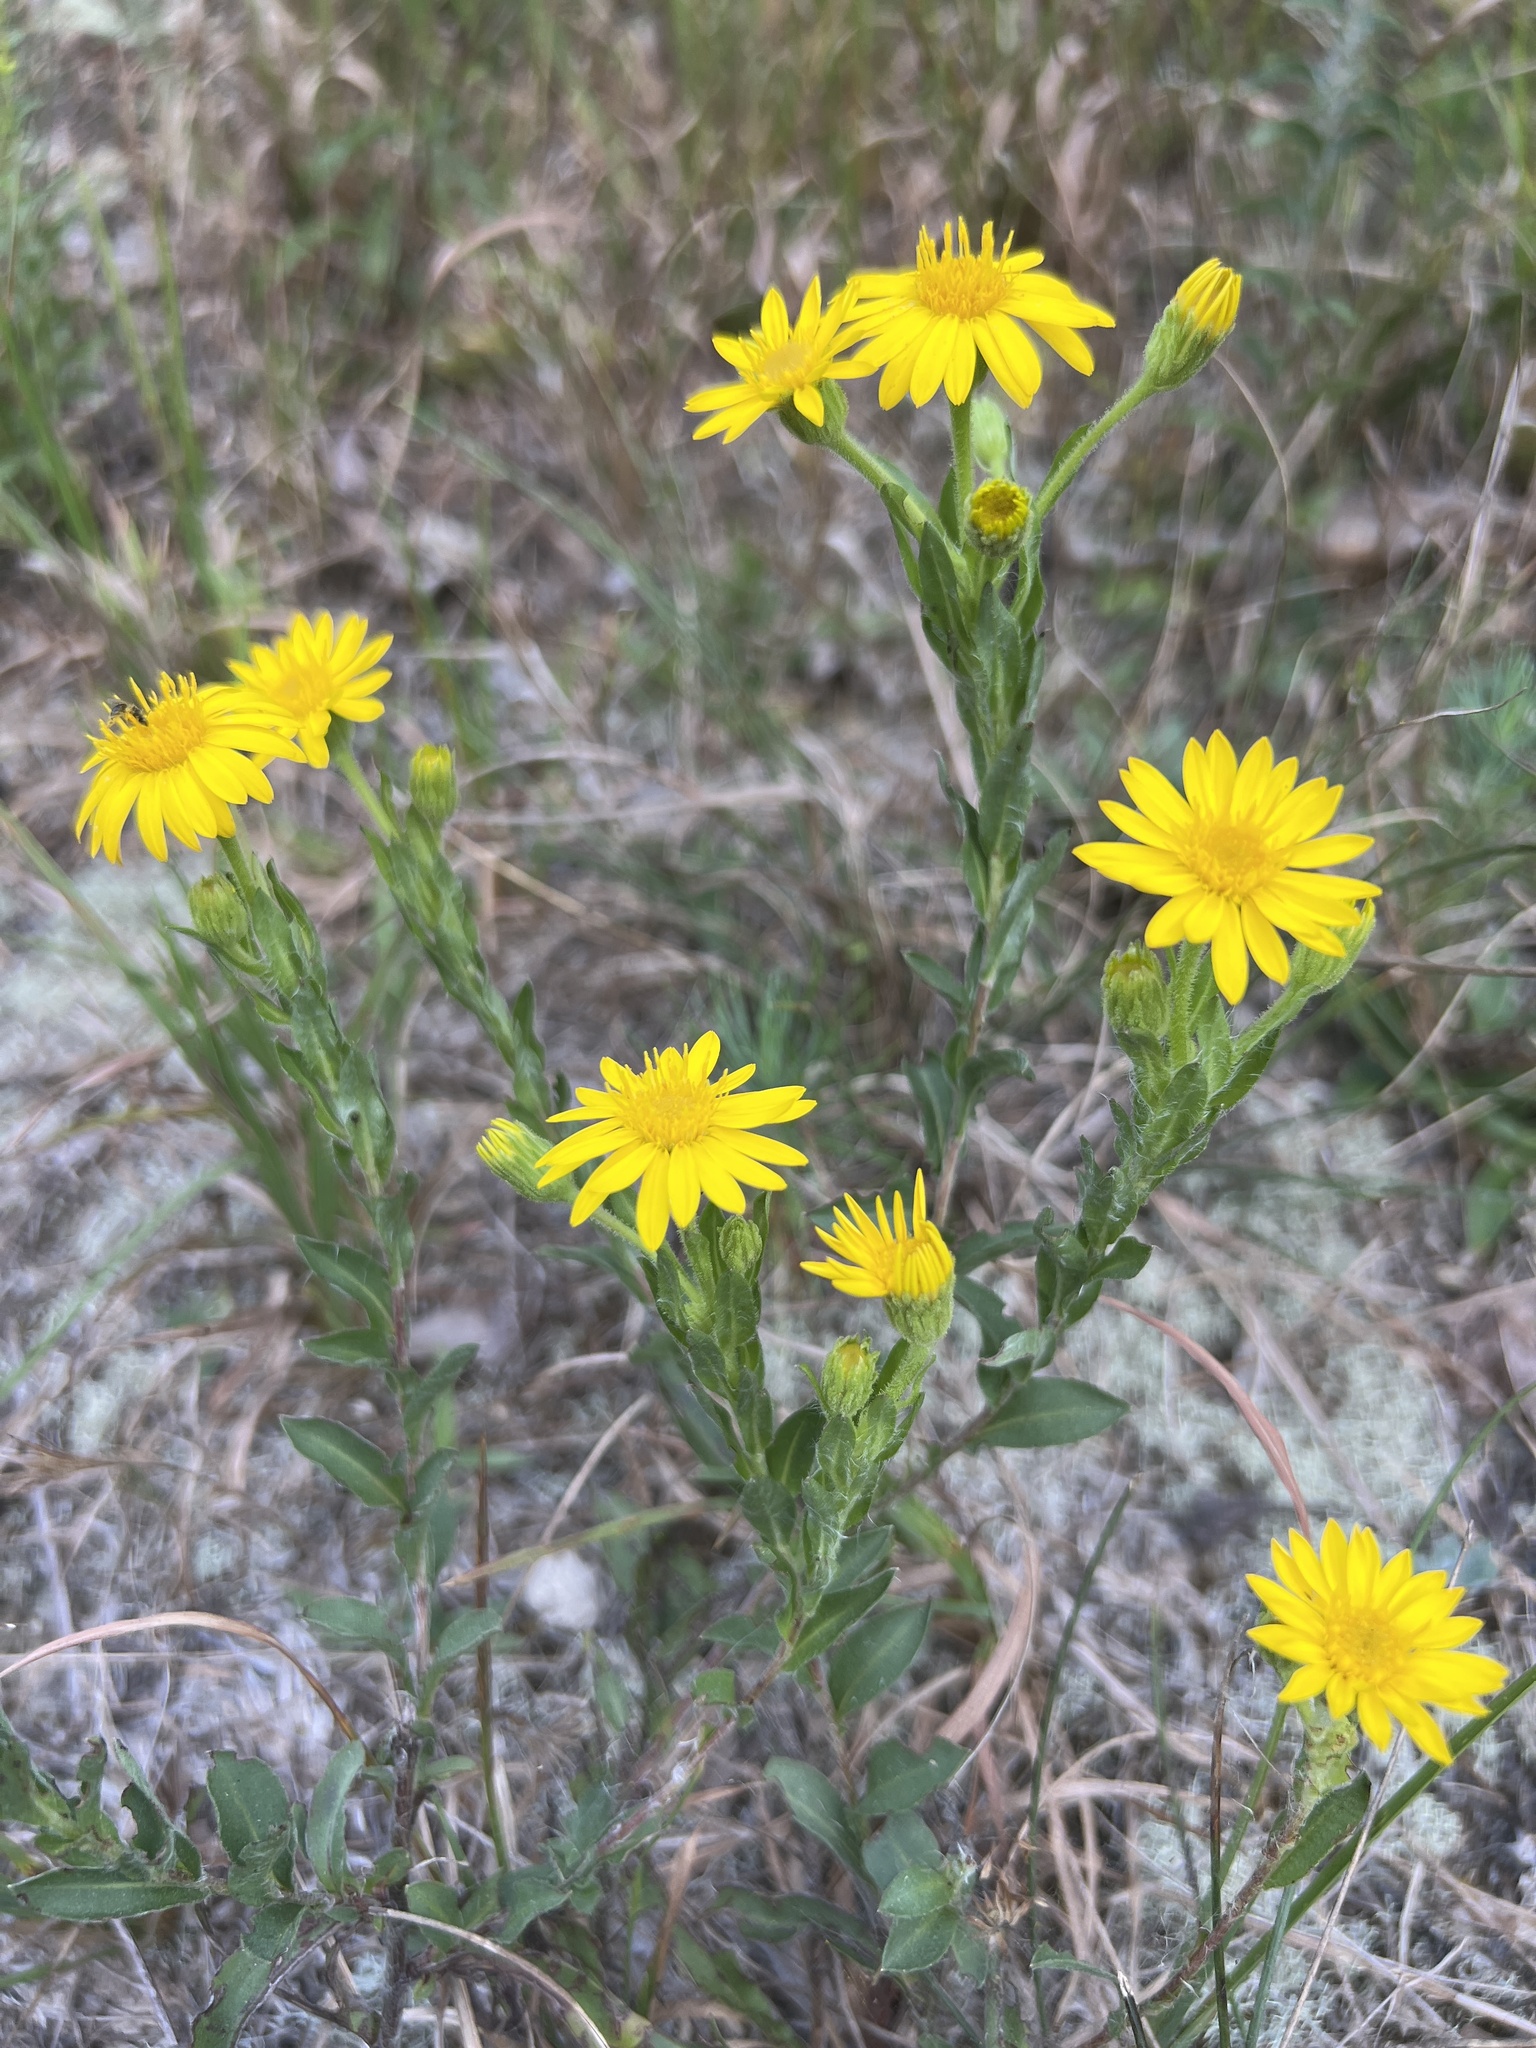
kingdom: Plantae
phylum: Tracheophyta
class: Magnoliopsida
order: Asterales
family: Asteraceae
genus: Chrysopsis
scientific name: Chrysopsis mariana
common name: Maryland golden-aster
